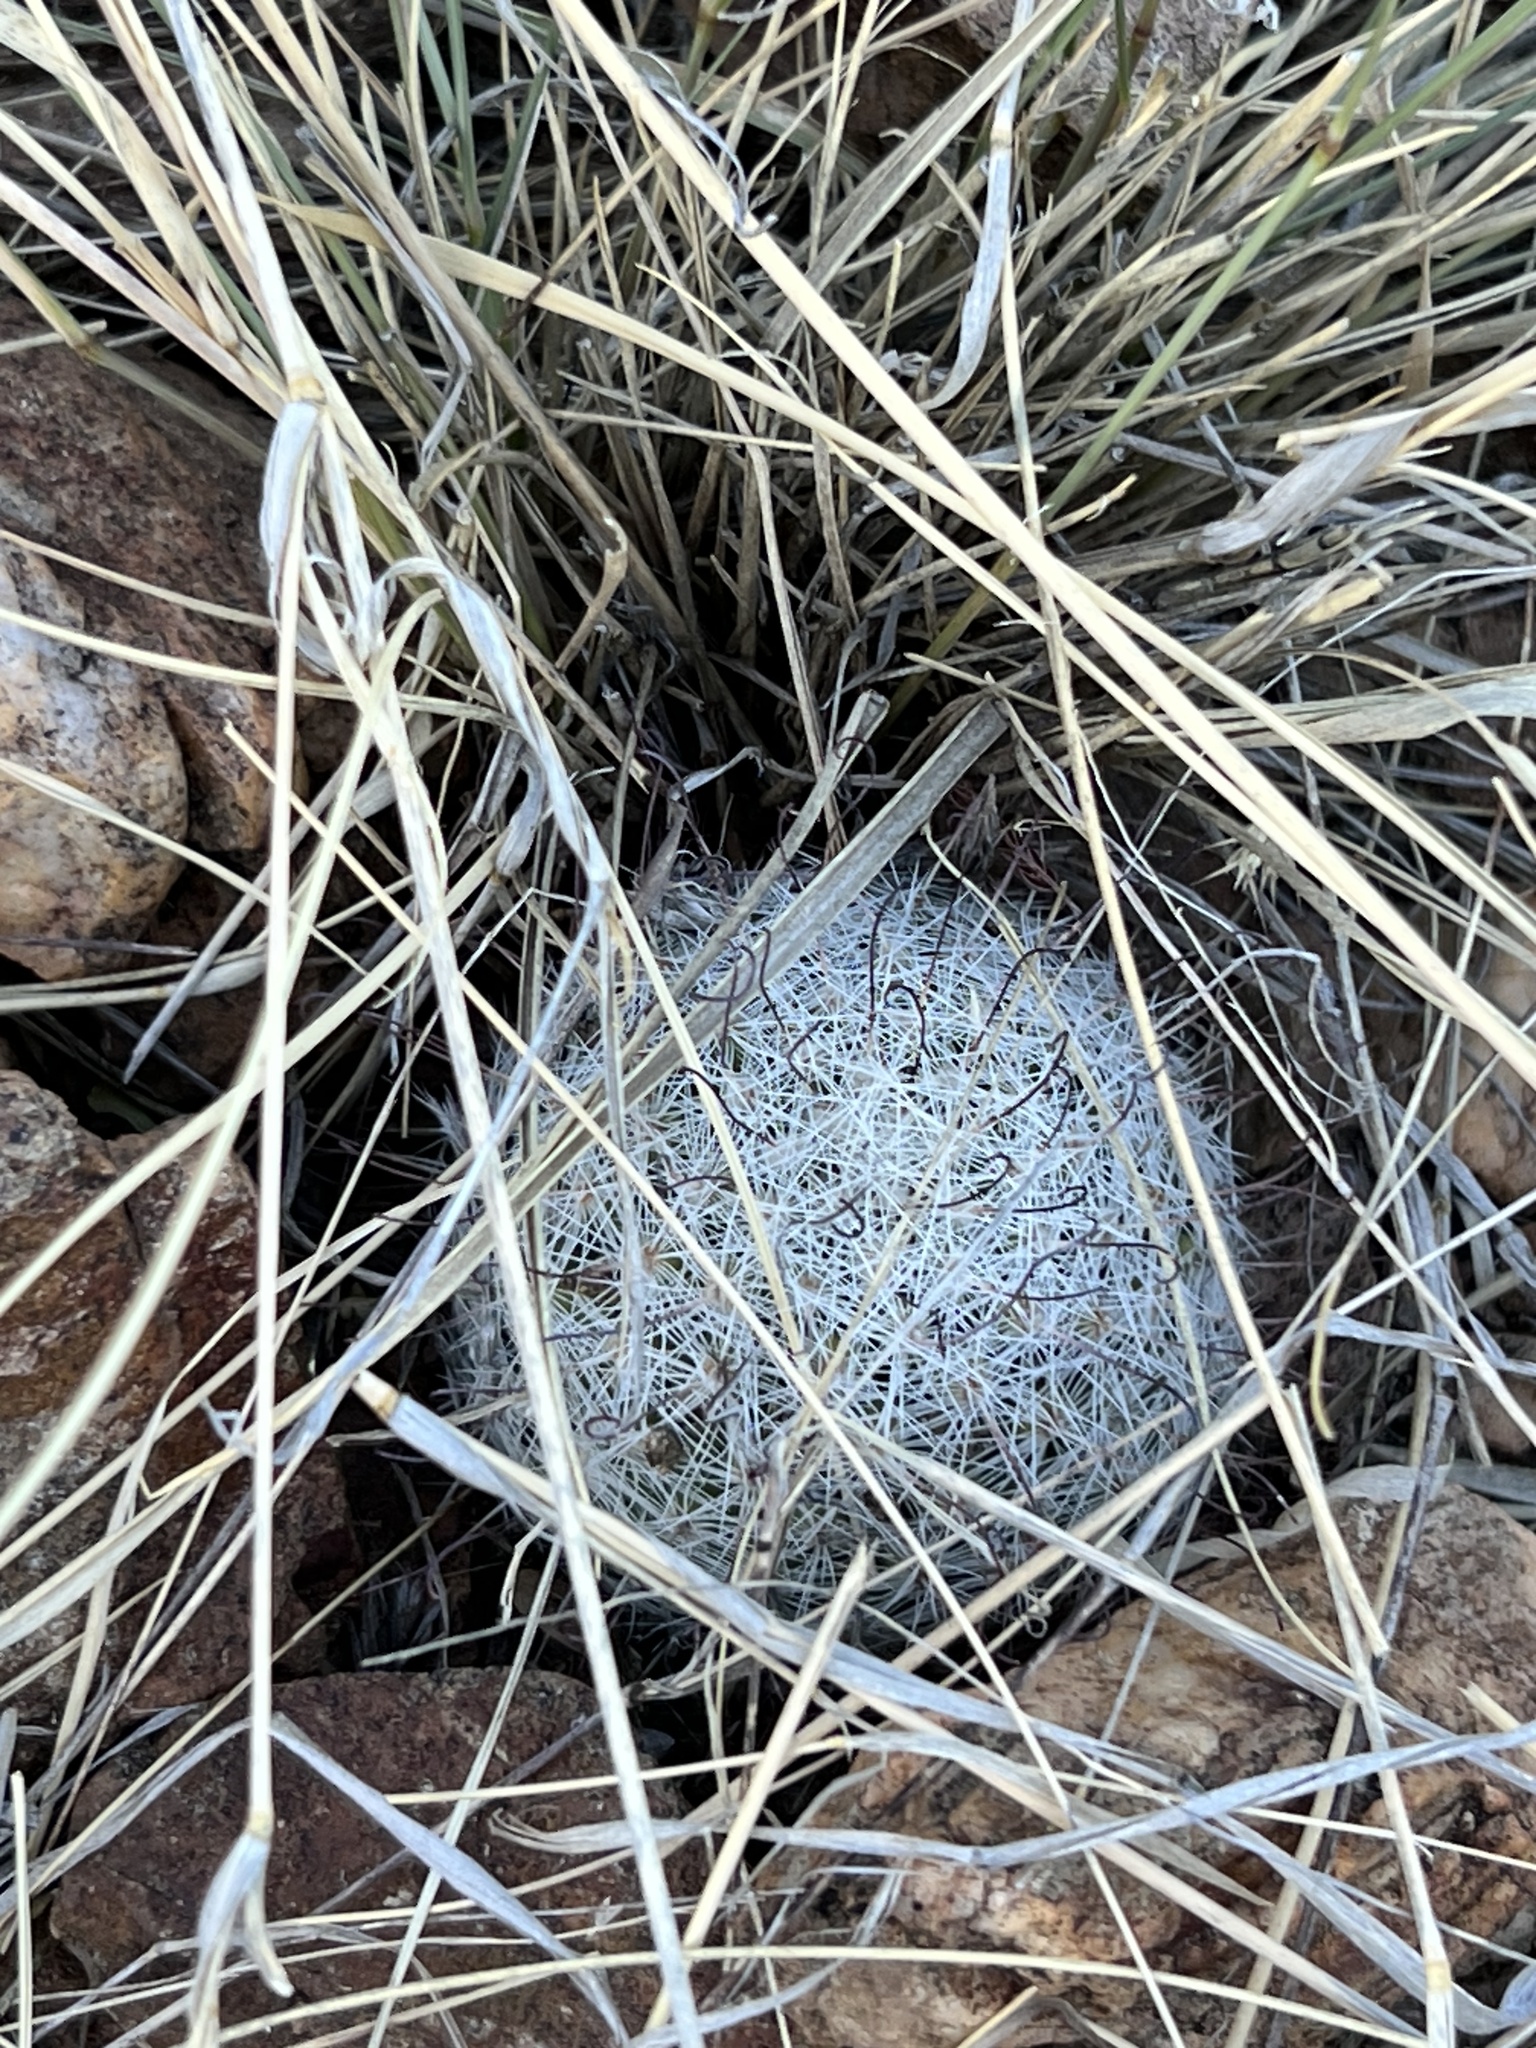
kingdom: Plantae
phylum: Tracheophyta
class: Magnoliopsida
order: Caryophyllales
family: Cactaceae
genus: Cochemiea
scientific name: Cochemiea grahamii
